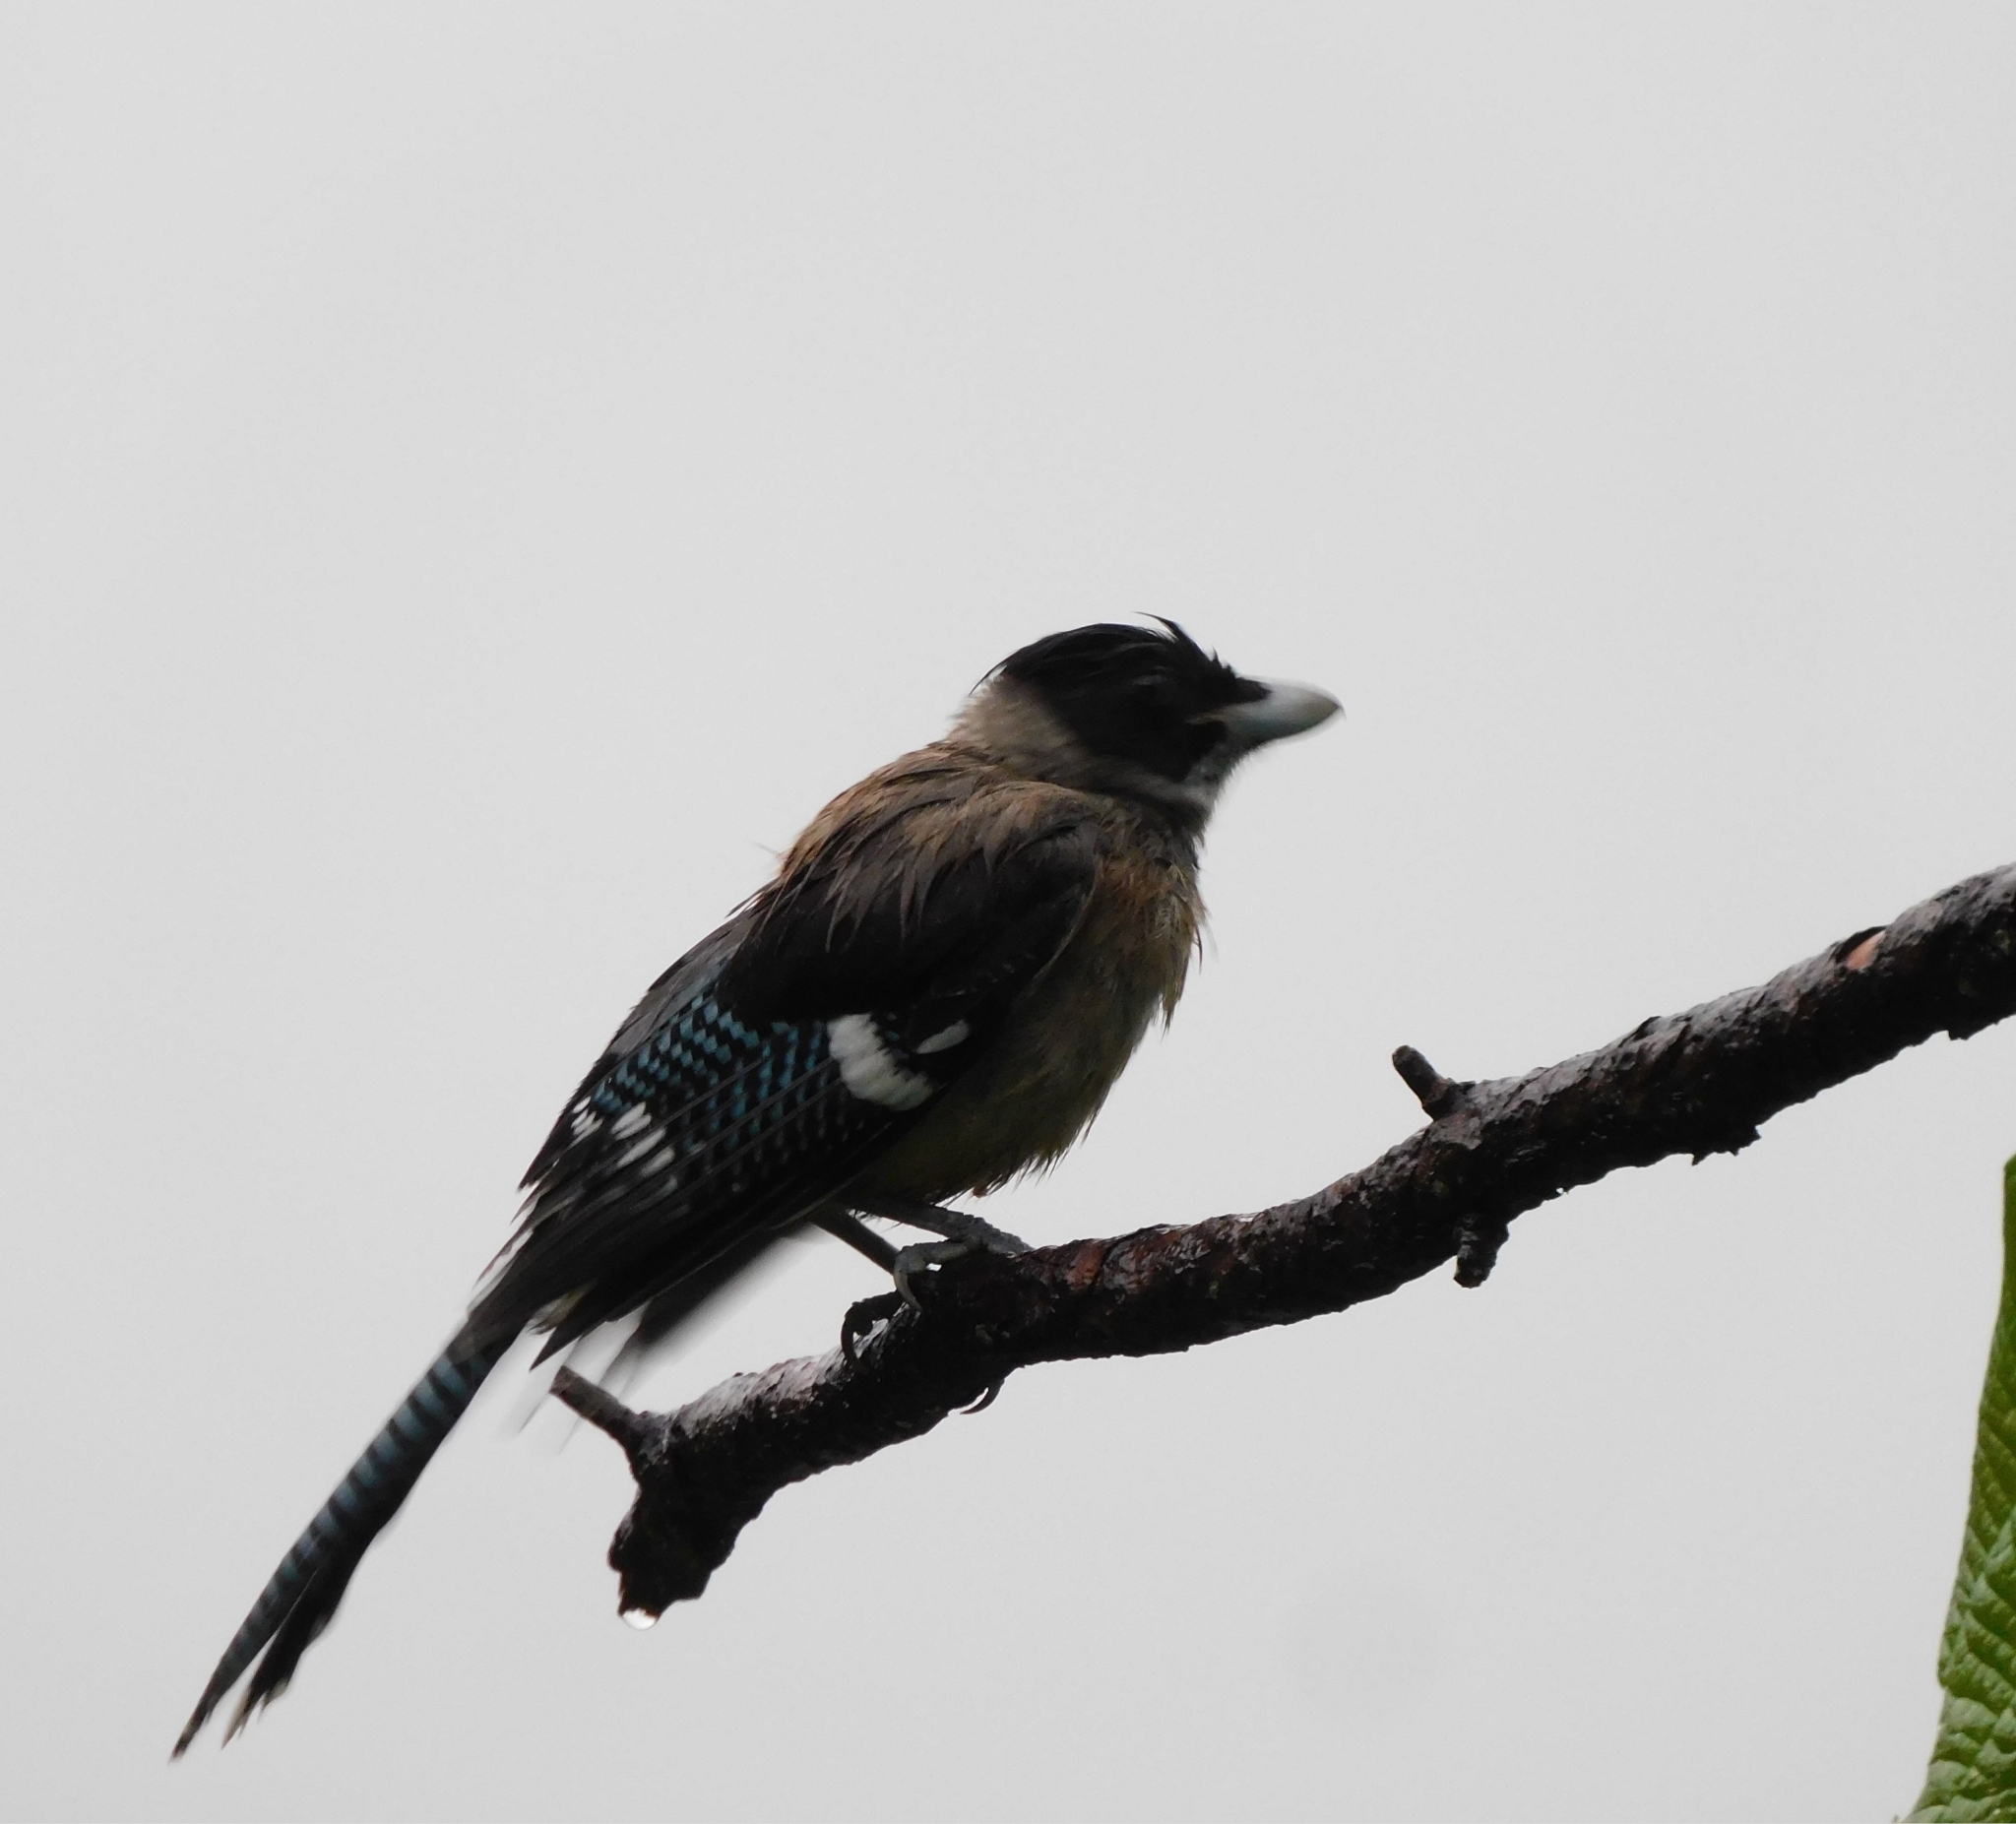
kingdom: Animalia
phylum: Chordata
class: Aves
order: Passeriformes
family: Corvidae
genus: Garrulus
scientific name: Garrulus lanceolatus
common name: Black-headed jay
